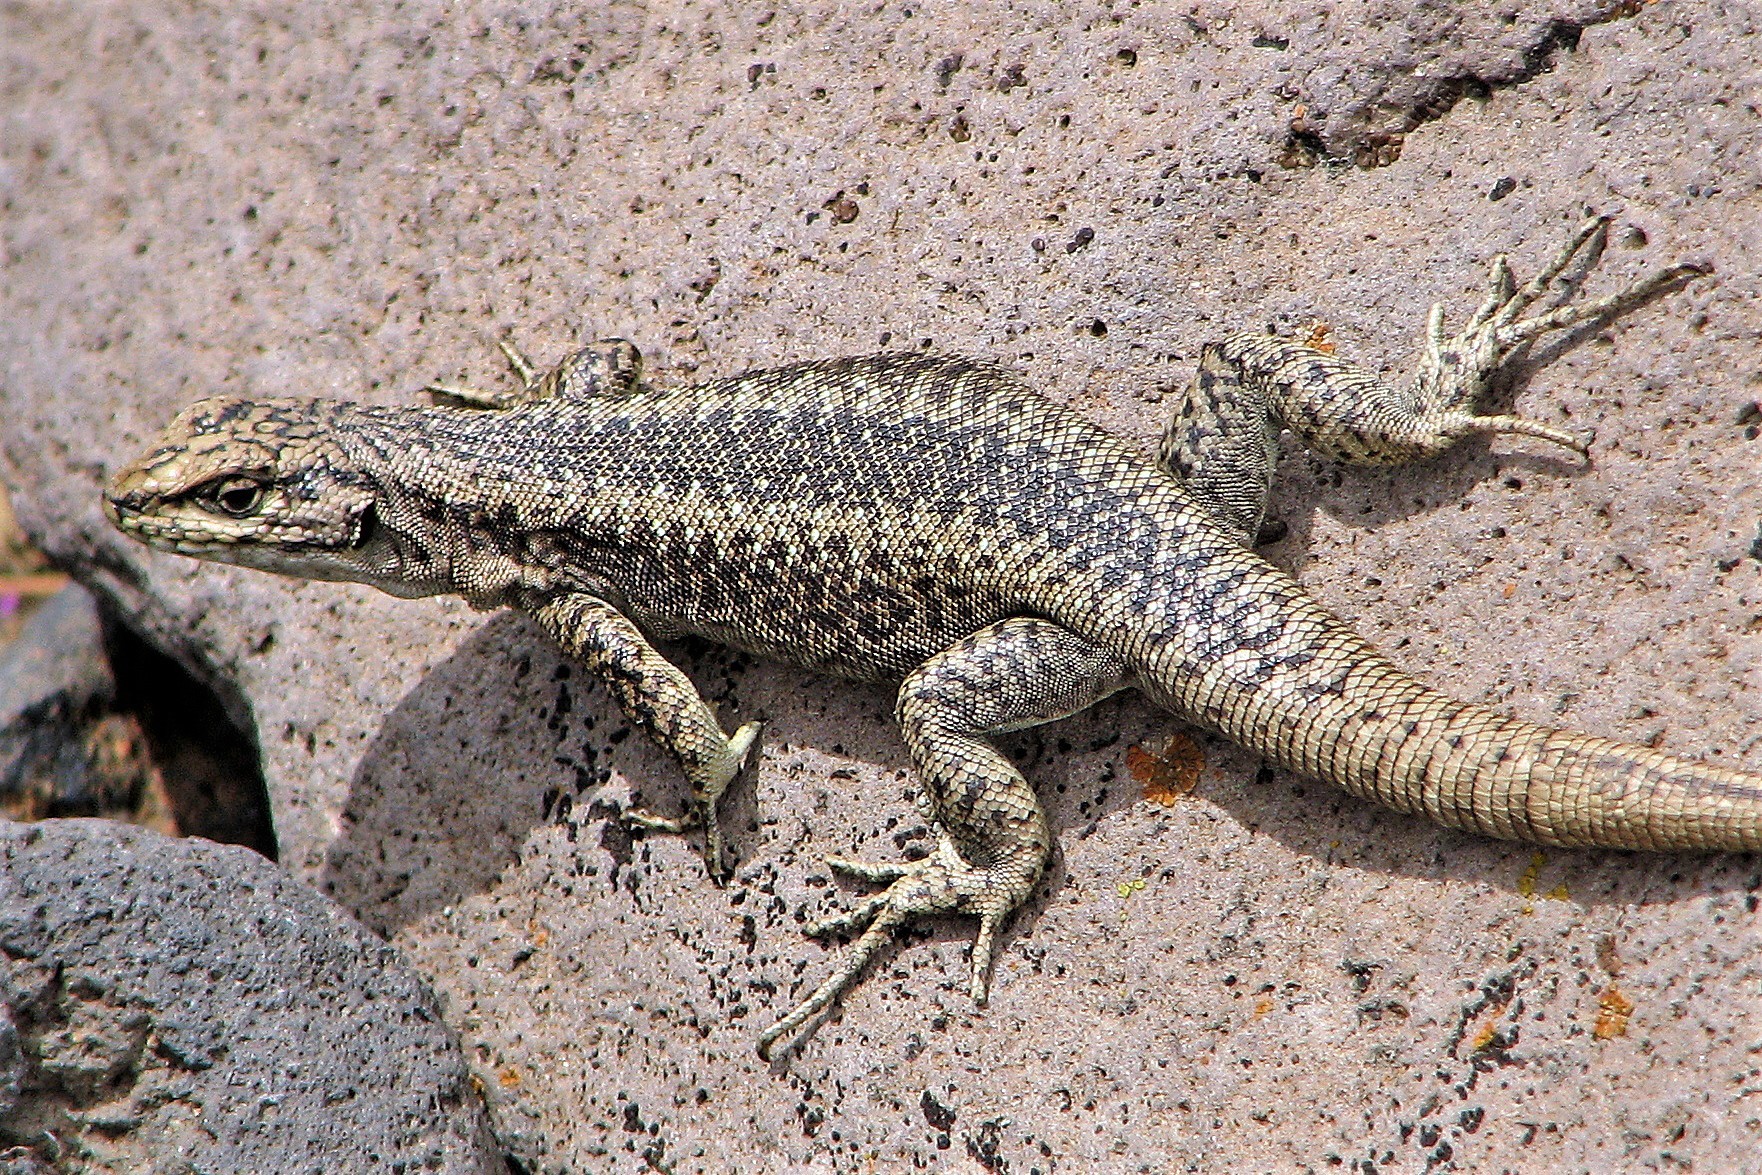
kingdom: Animalia
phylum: Chordata
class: Squamata
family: Liolaemidae
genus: Liolaemus
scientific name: Liolaemus elongatus
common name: Elongate tree iguana
